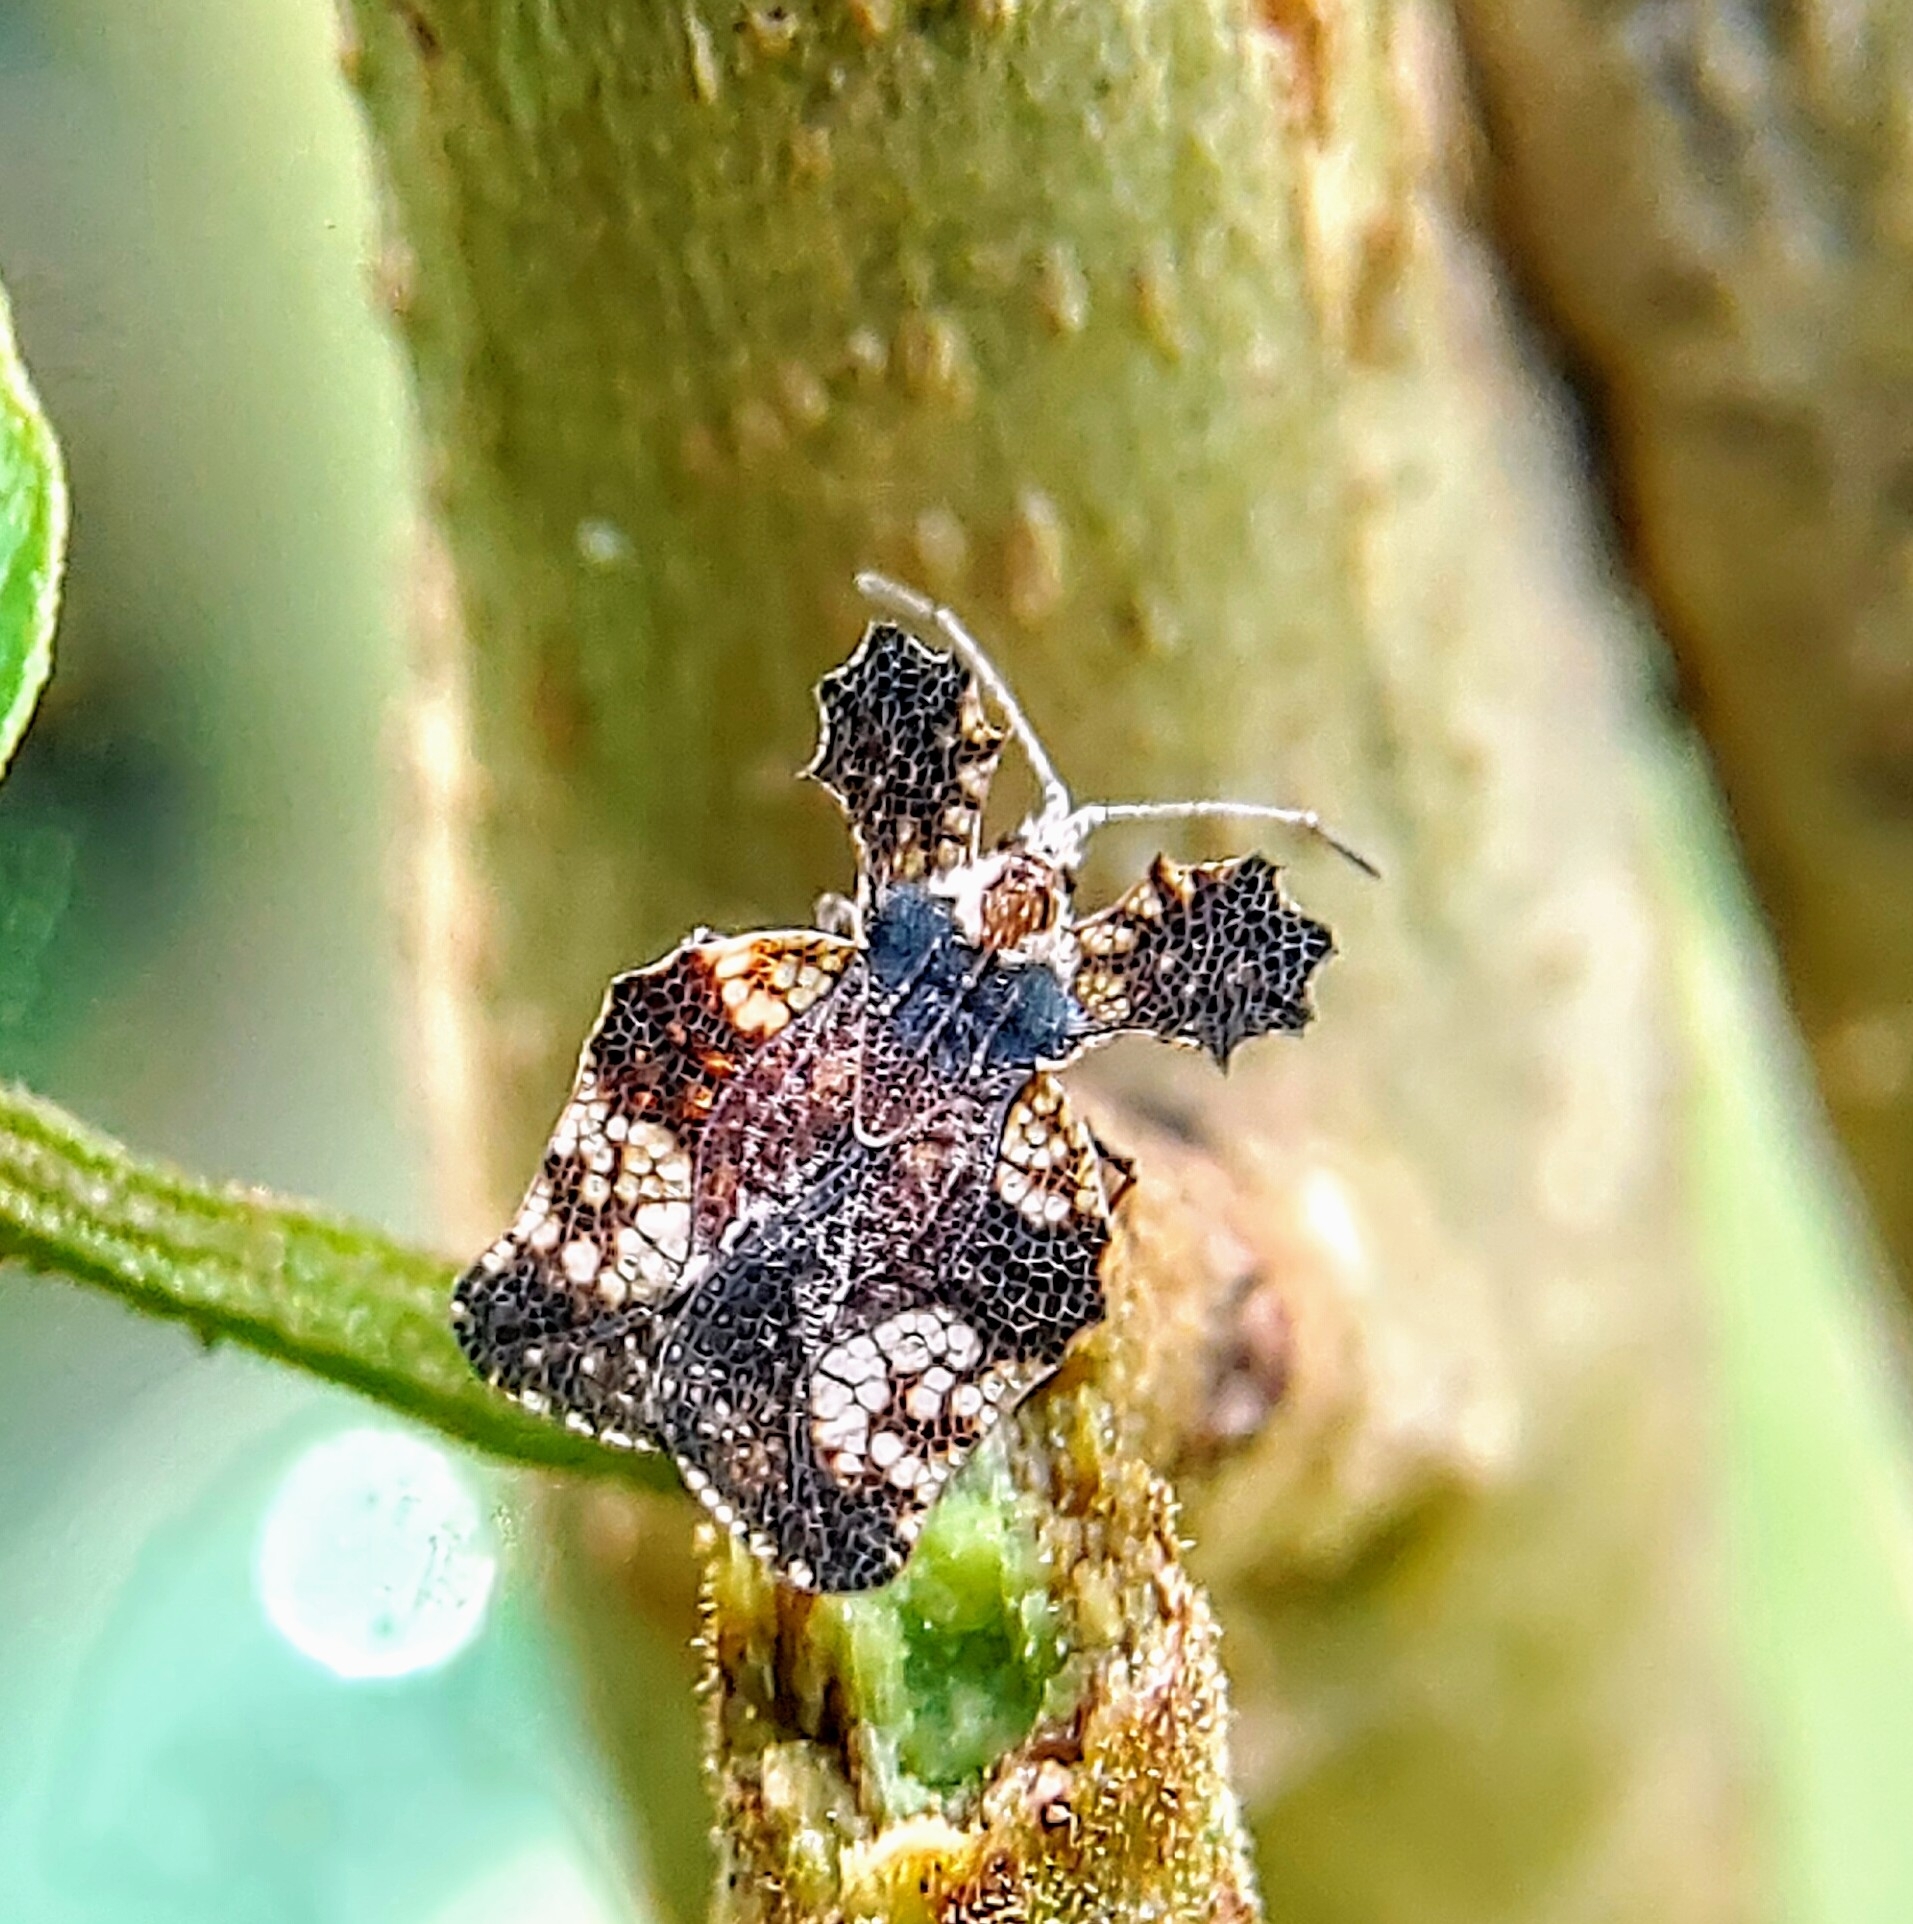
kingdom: Animalia
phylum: Arthropoda
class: Insecta
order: Hemiptera
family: Tingidae
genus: Ammianus
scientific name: Ammianus erosus
